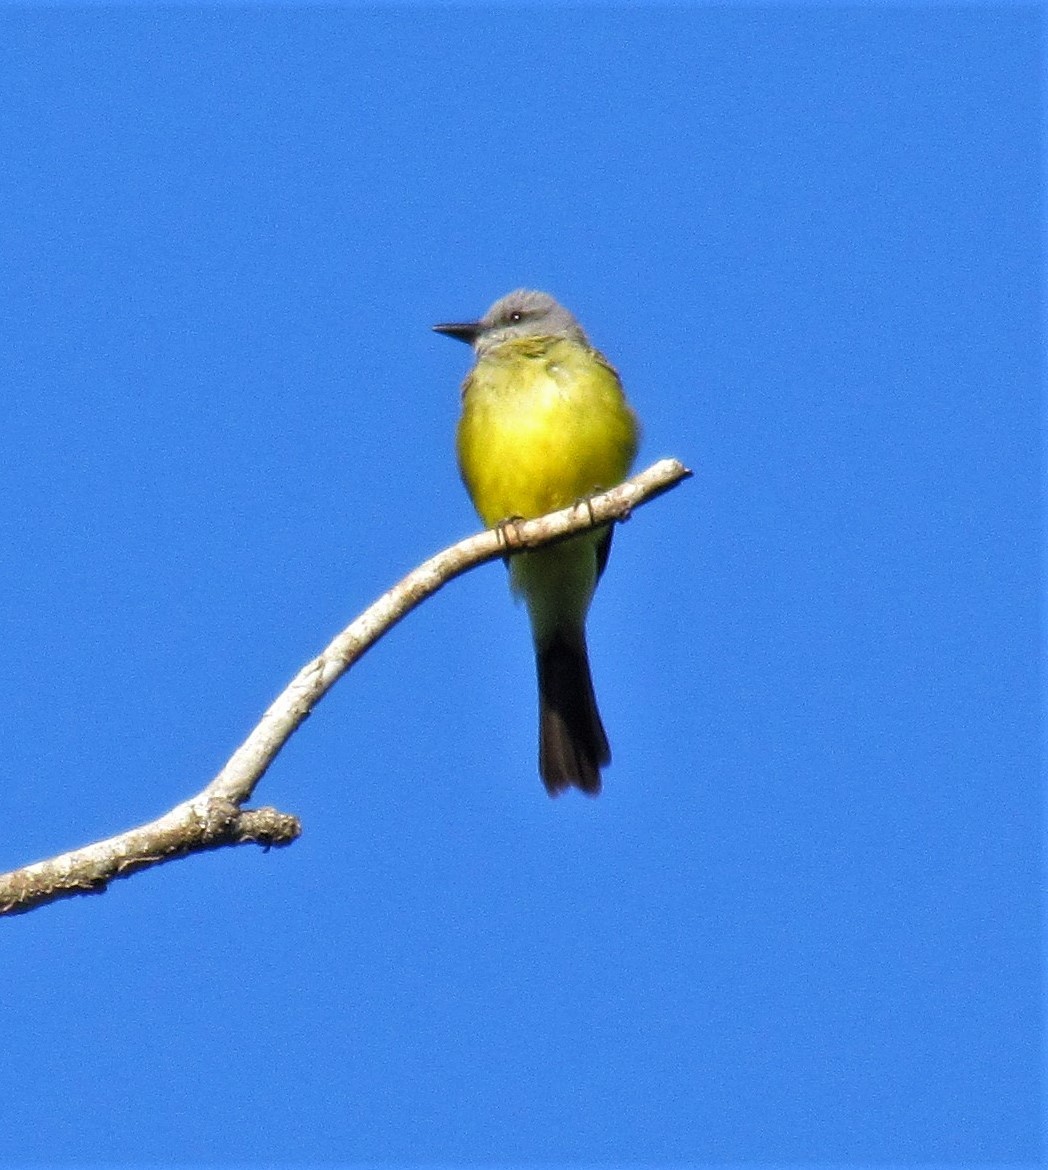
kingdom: Animalia
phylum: Chordata
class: Aves
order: Passeriformes
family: Tyrannidae
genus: Tyrannus
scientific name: Tyrannus melancholicus
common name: Tropical kingbird
